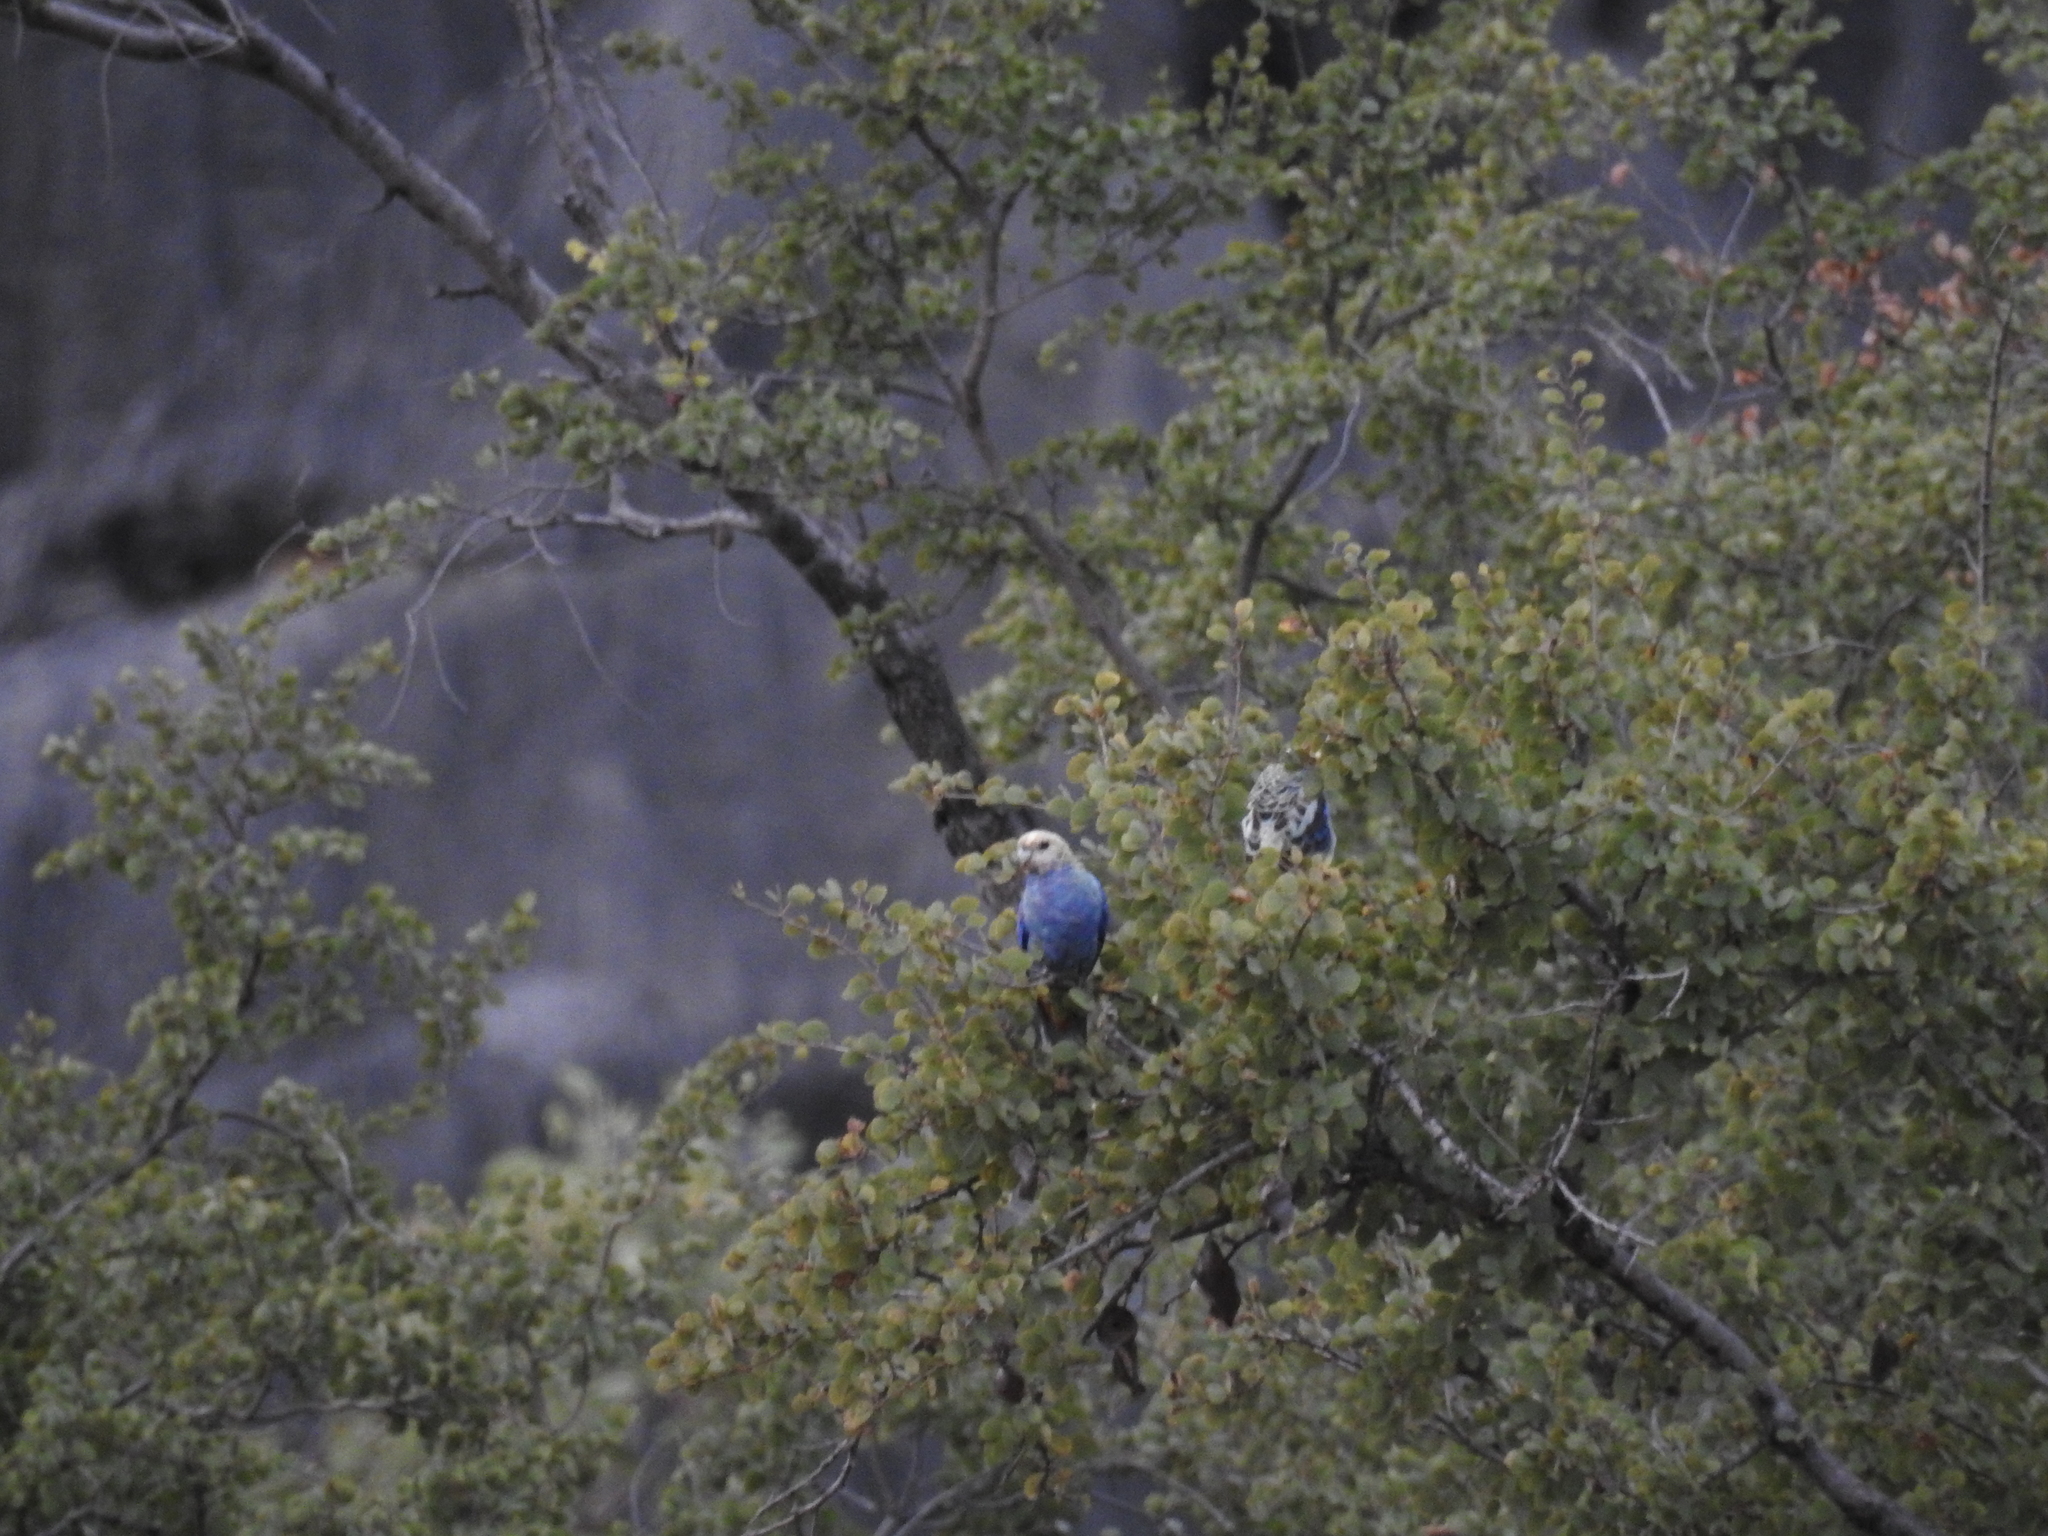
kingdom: Animalia
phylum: Chordata
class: Aves
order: Psittaciformes
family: Psittacidae
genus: Platycercus
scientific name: Platycercus adscitus
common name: Pale-headed rosella
